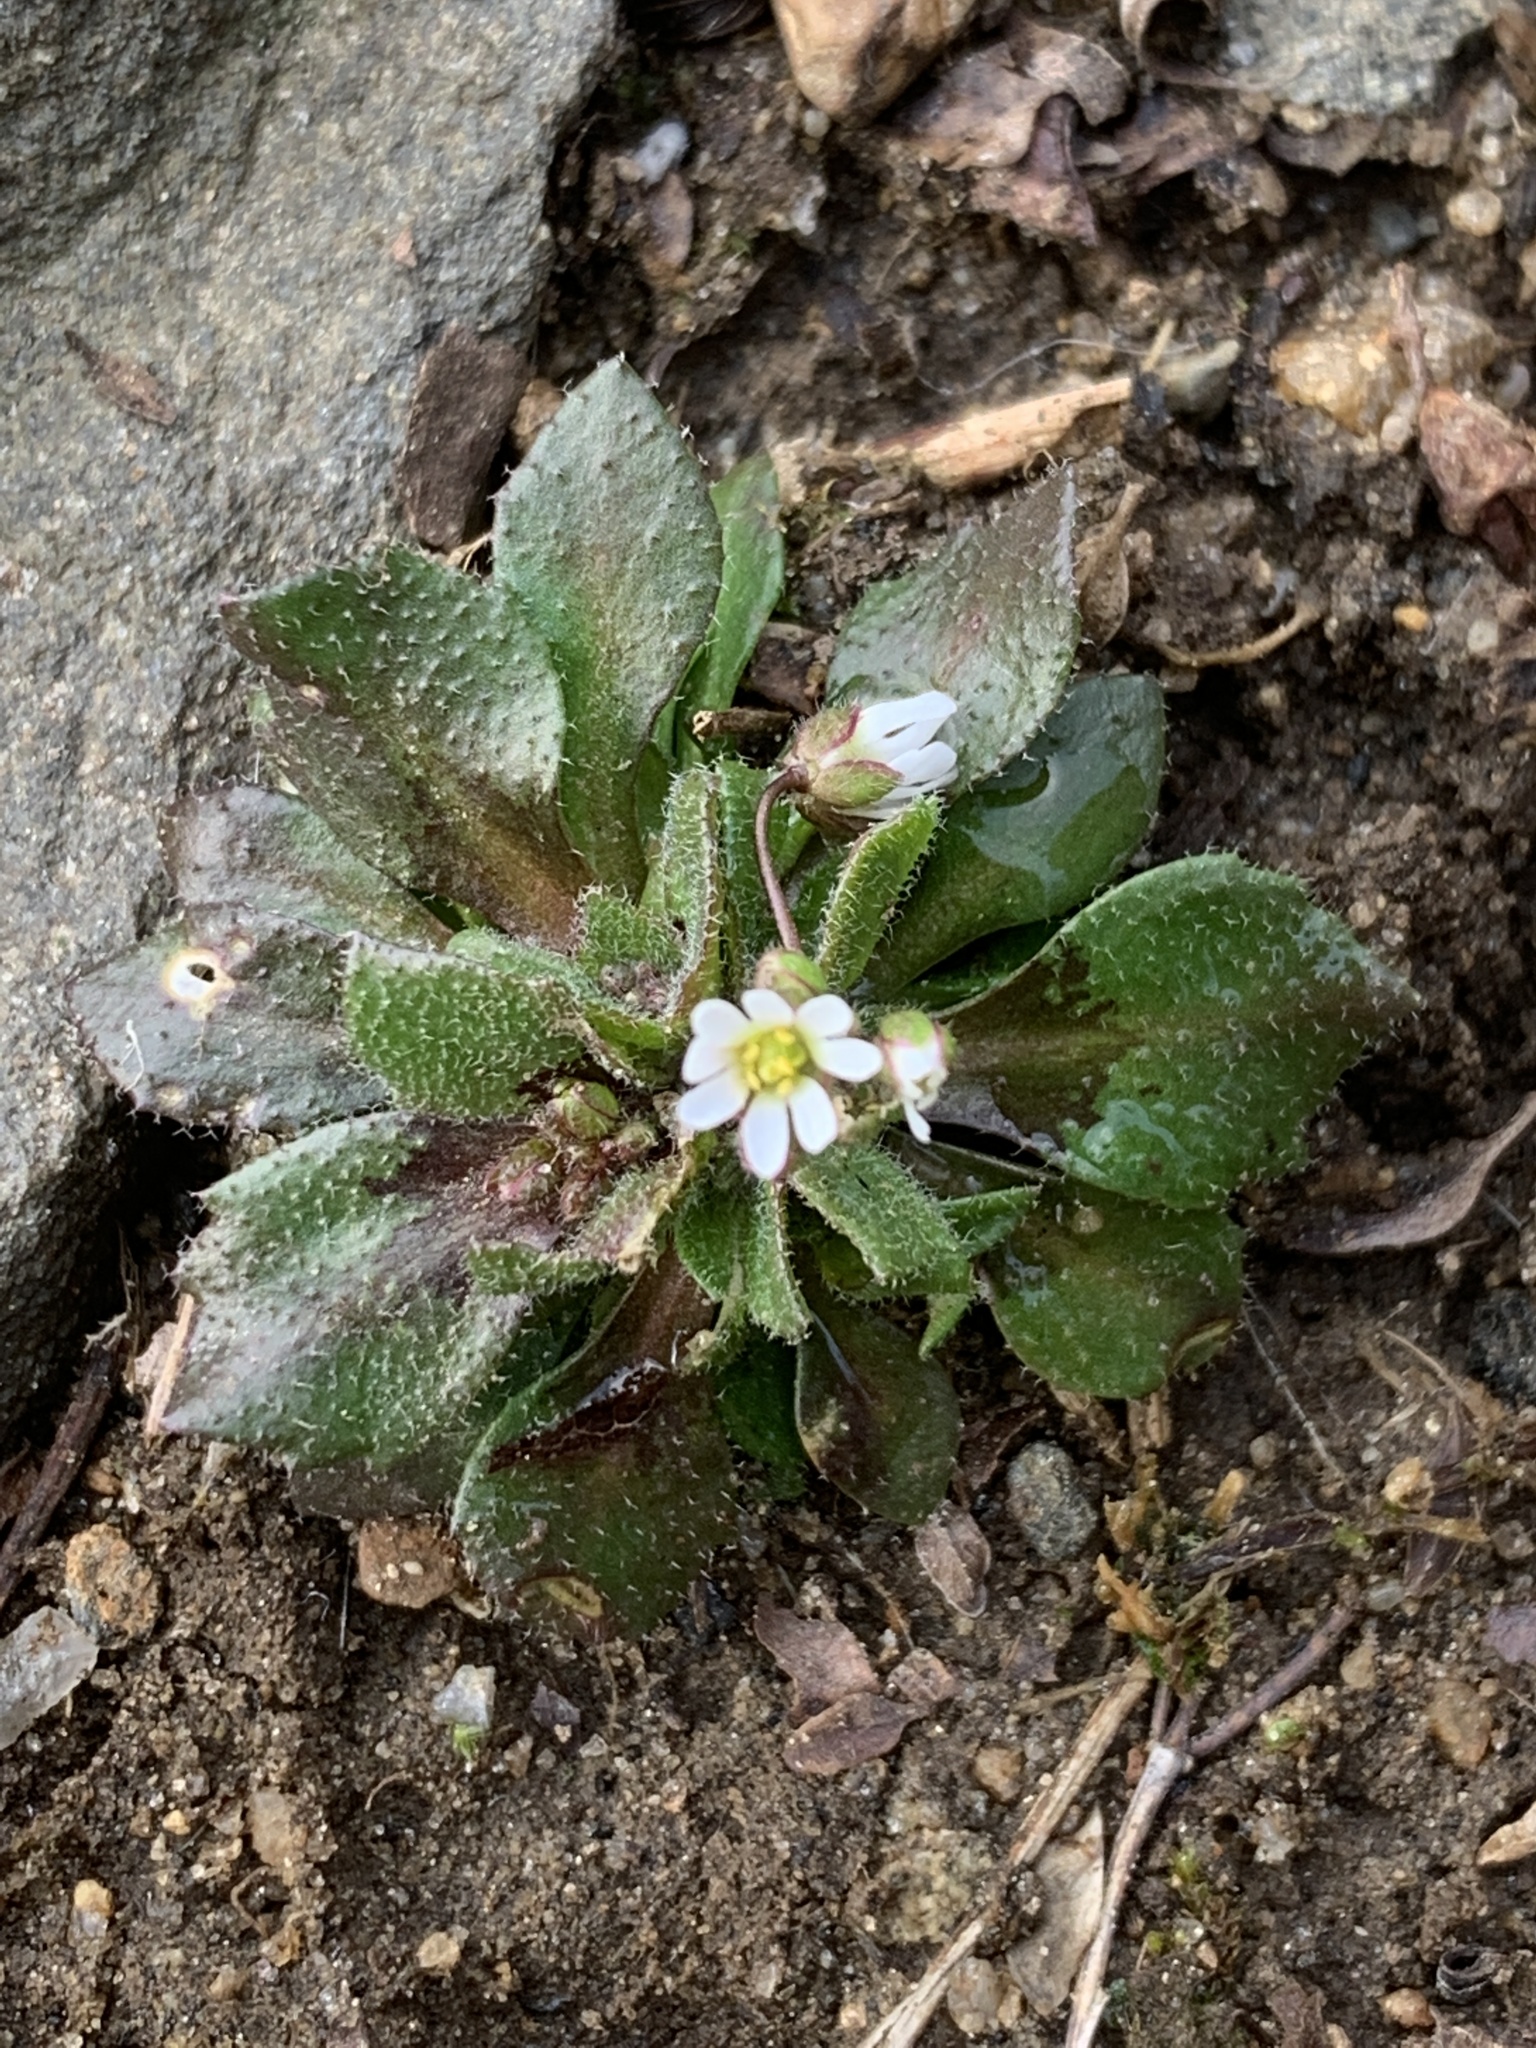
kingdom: Plantae
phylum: Tracheophyta
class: Magnoliopsida
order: Brassicales
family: Brassicaceae
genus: Draba
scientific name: Draba verna
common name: Spring draba
